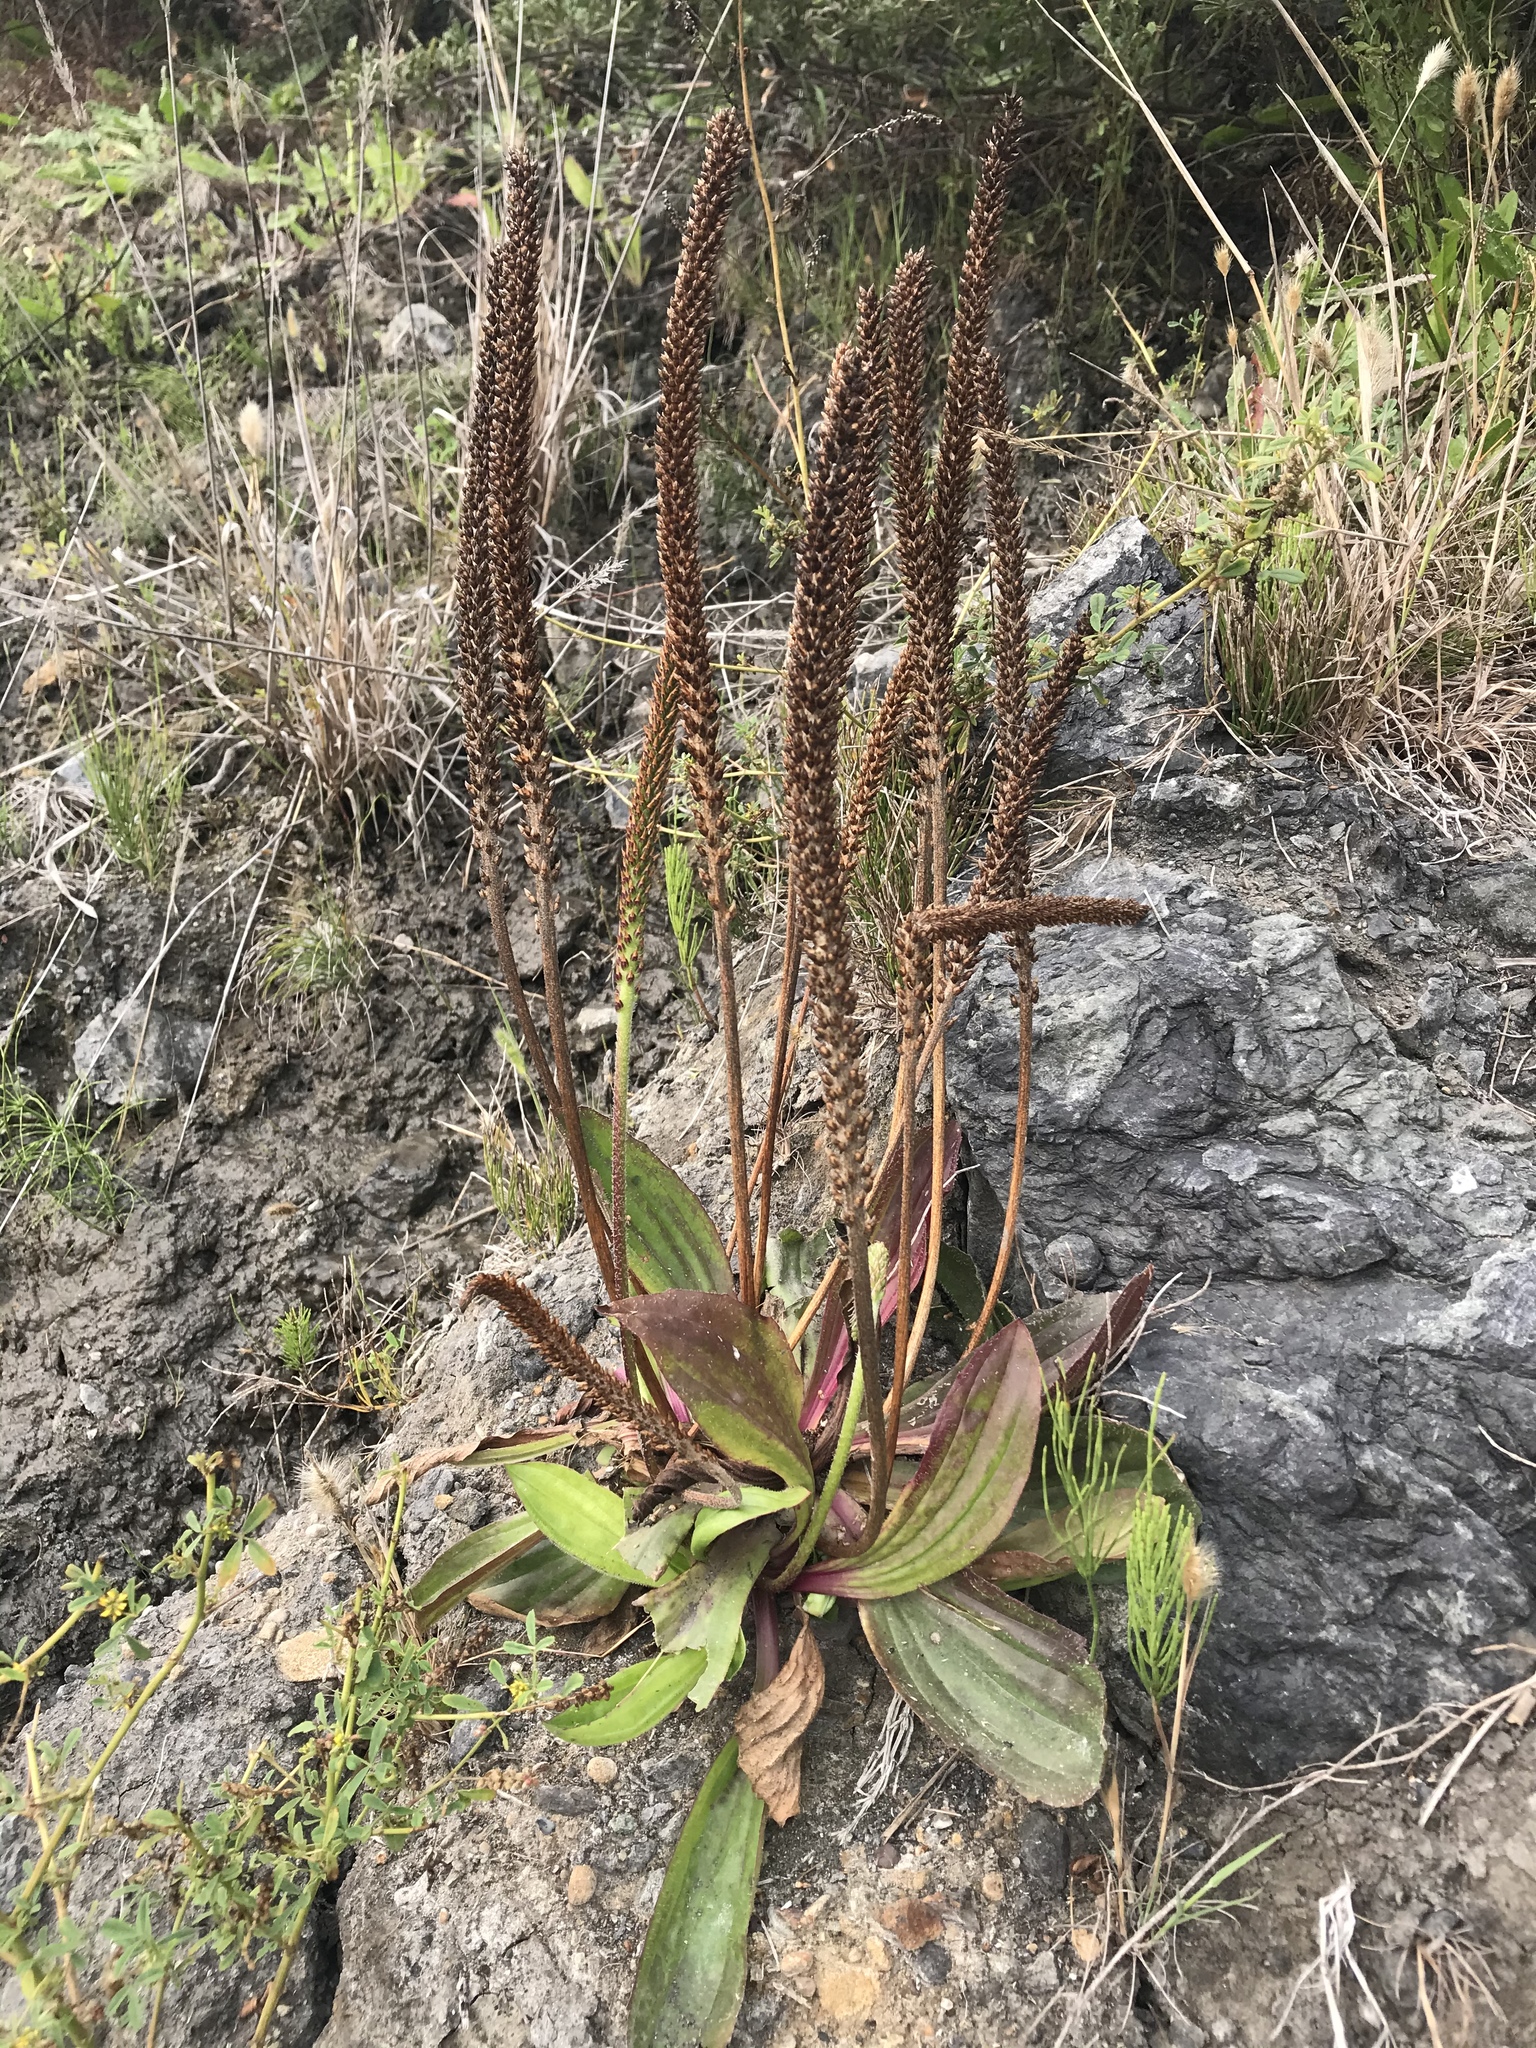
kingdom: Plantae
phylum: Tracheophyta
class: Magnoliopsida
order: Lamiales
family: Plantaginaceae
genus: Plantago
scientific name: Plantago subnuda
